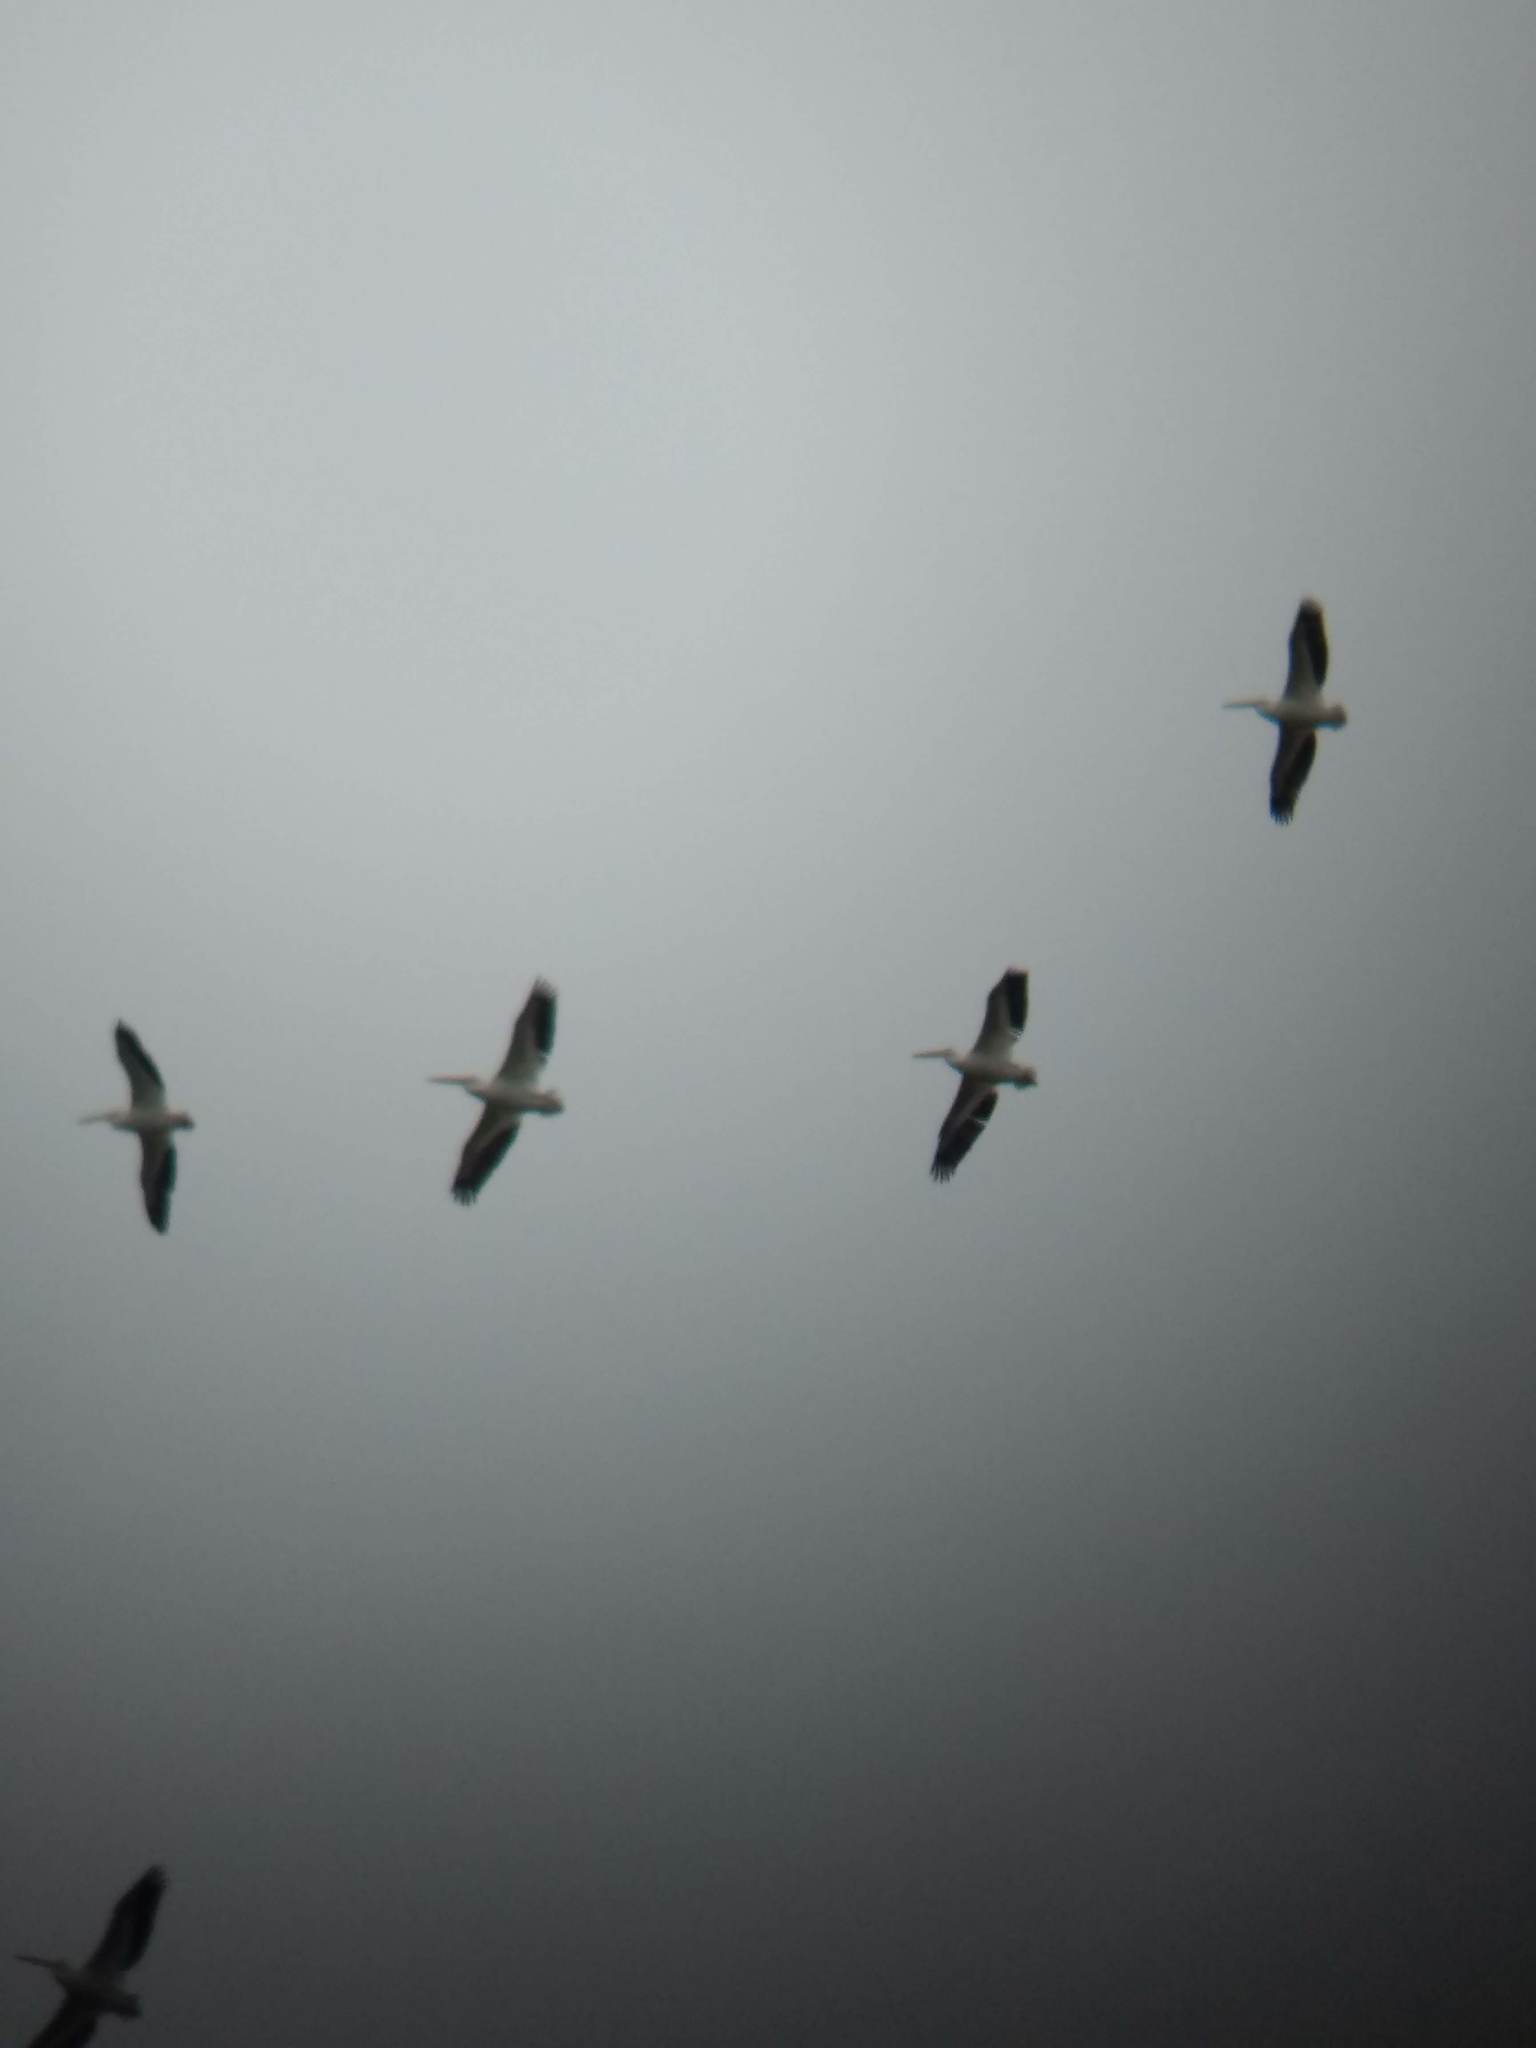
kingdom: Animalia
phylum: Chordata
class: Aves
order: Pelecaniformes
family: Pelecanidae
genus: Pelecanus
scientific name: Pelecanus erythrorhynchos
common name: American white pelican
